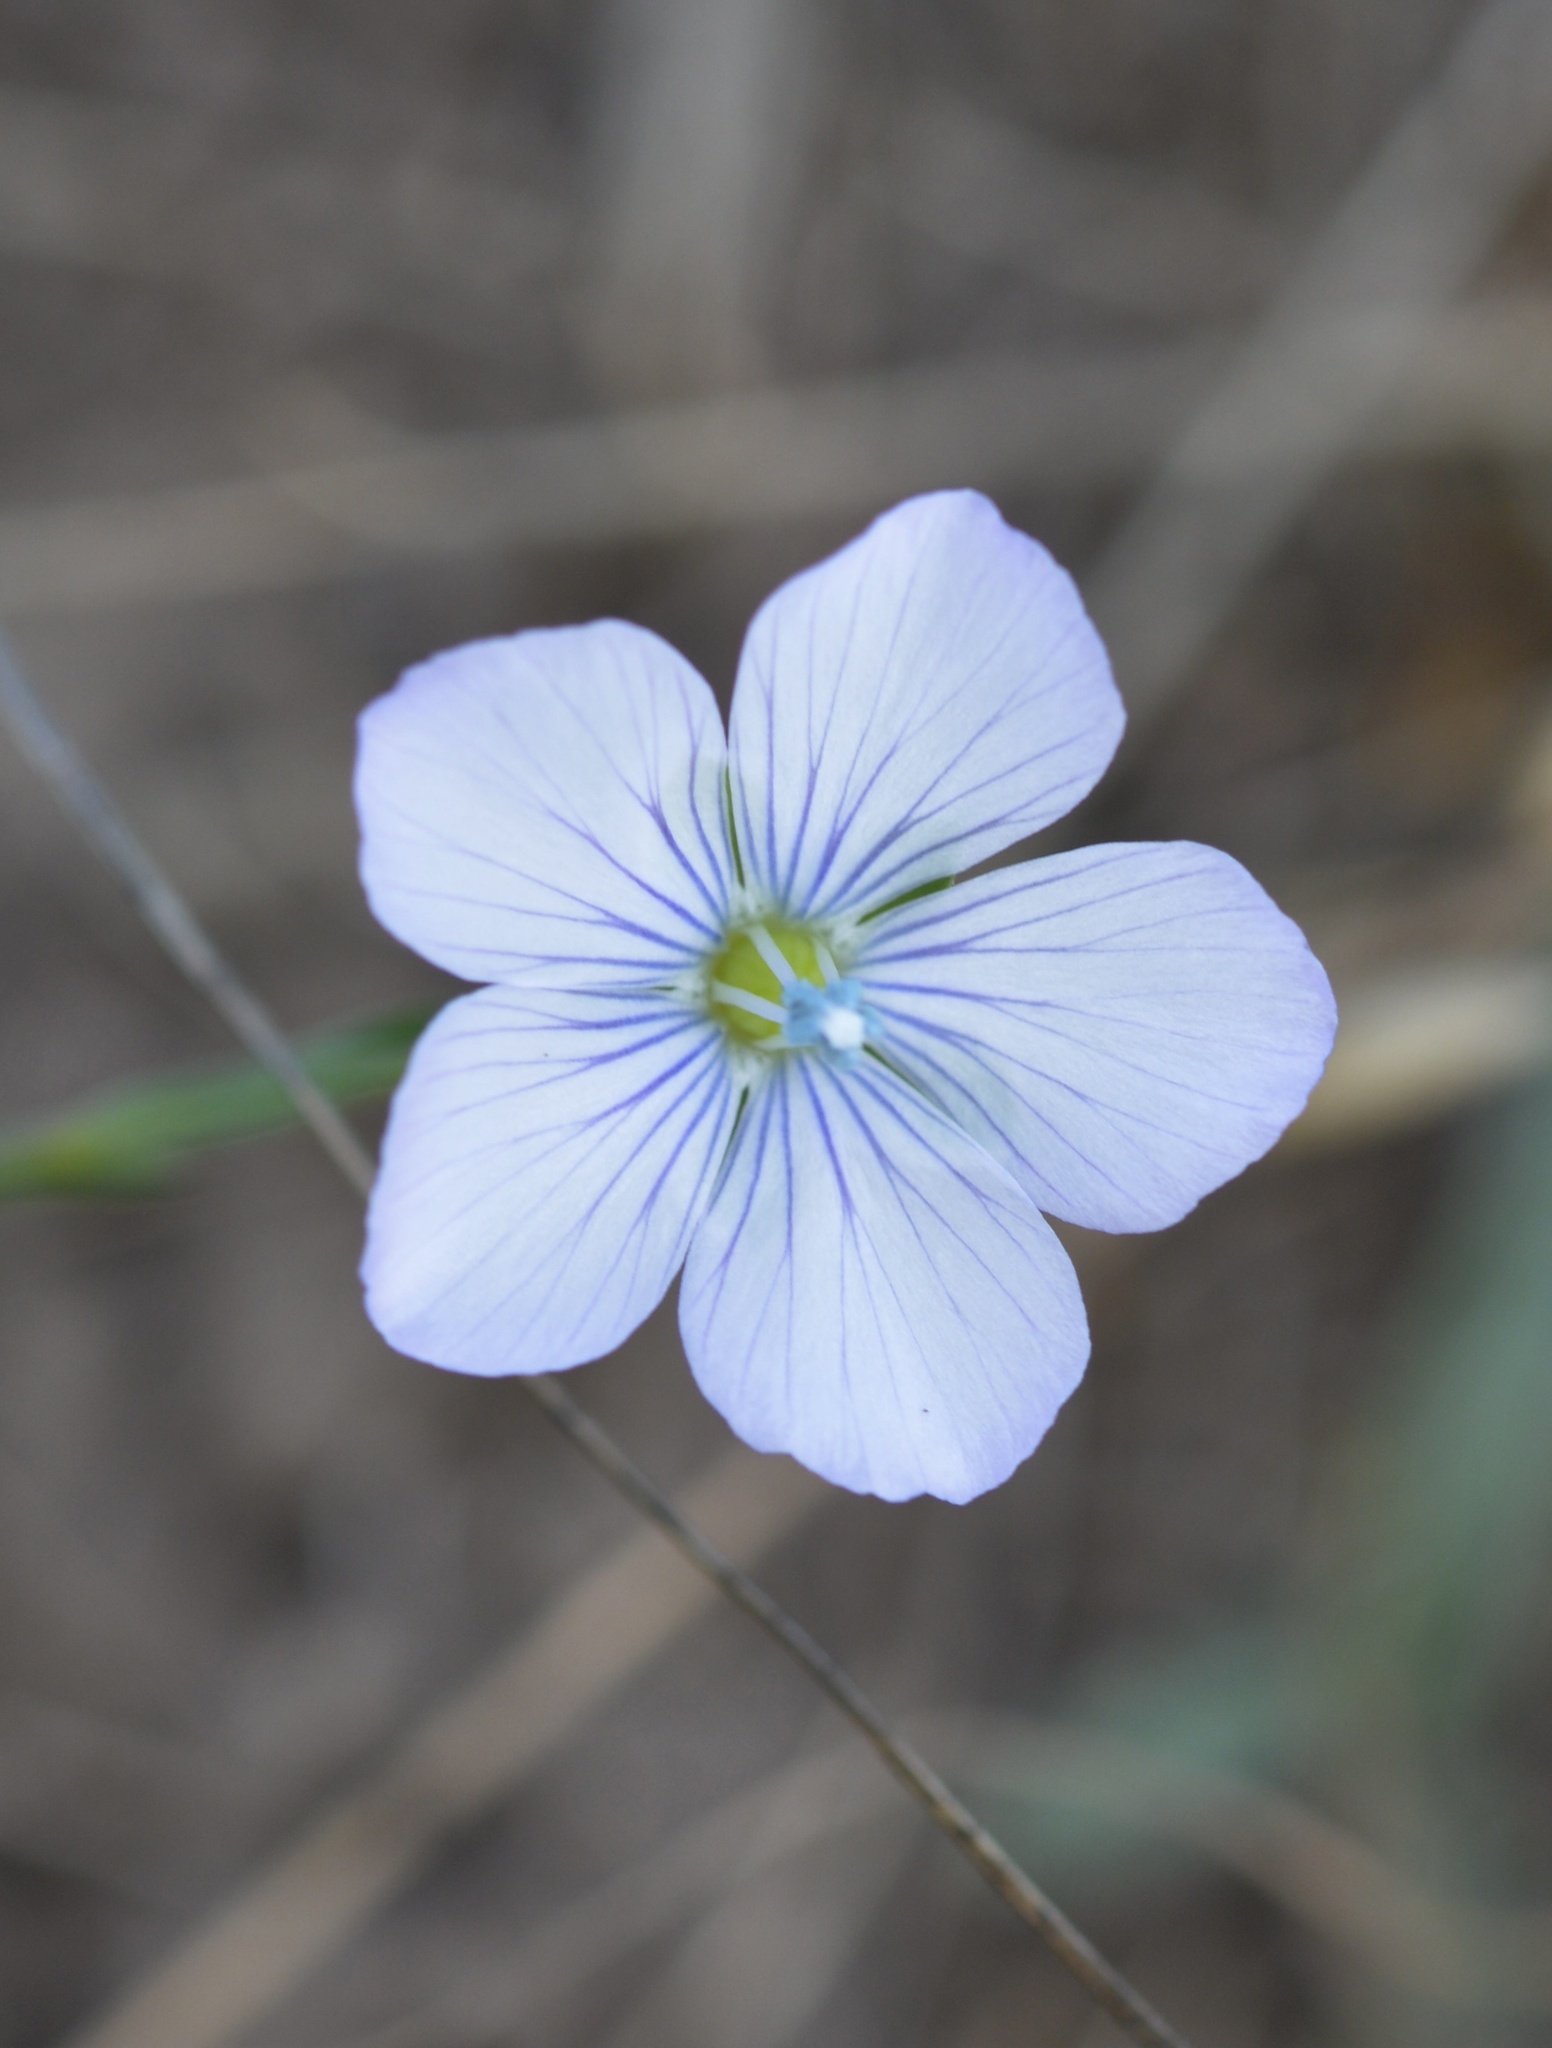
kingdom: Plantae
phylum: Tracheophyta
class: Magnoliopsida
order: Malpighiales
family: Linaceae
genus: Linum
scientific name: Linum bienne
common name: Pale flax
